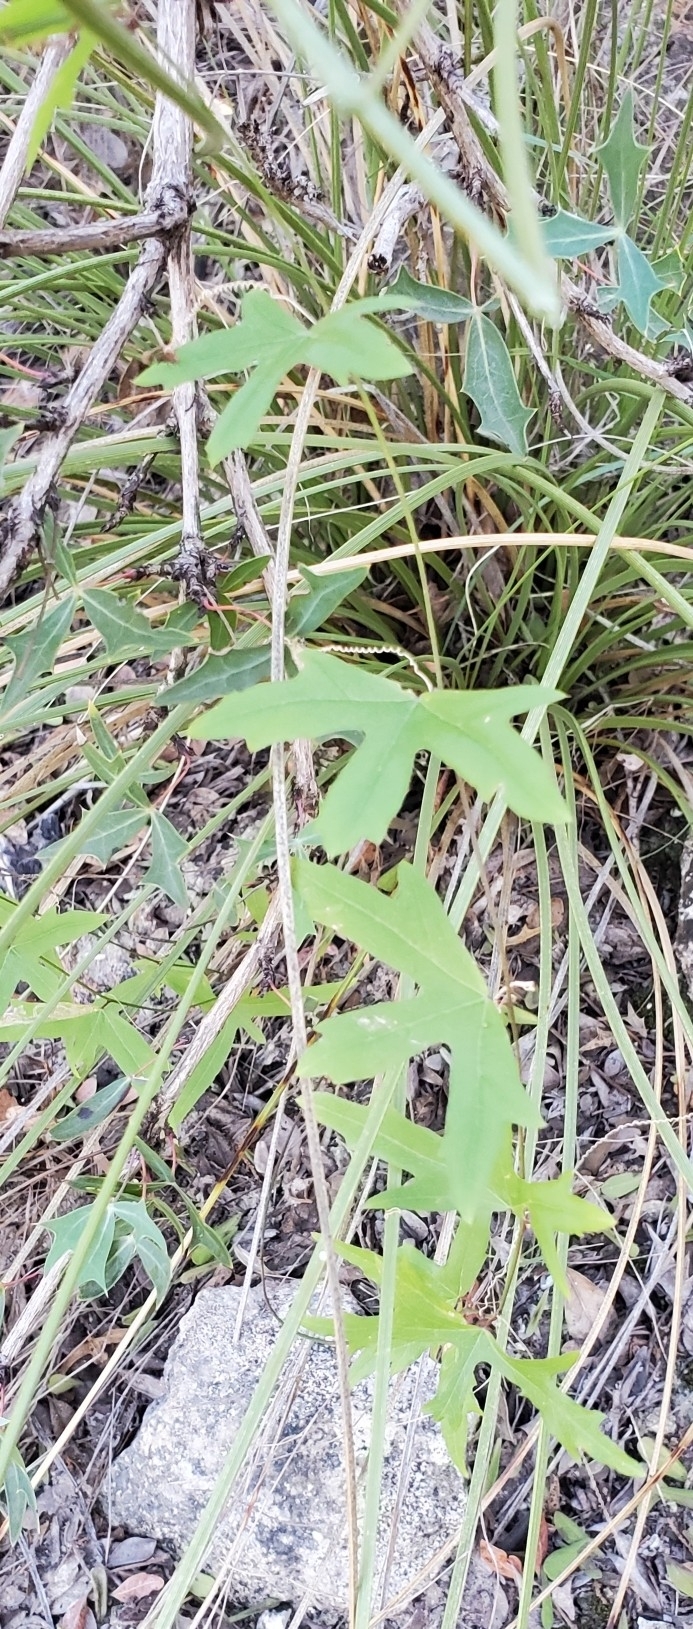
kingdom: Plantae
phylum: Tracheophyta
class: Magnoliopsida
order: Malpighiales
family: Passifloraceae
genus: Passiflora
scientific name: Passiflora tenuiloba
